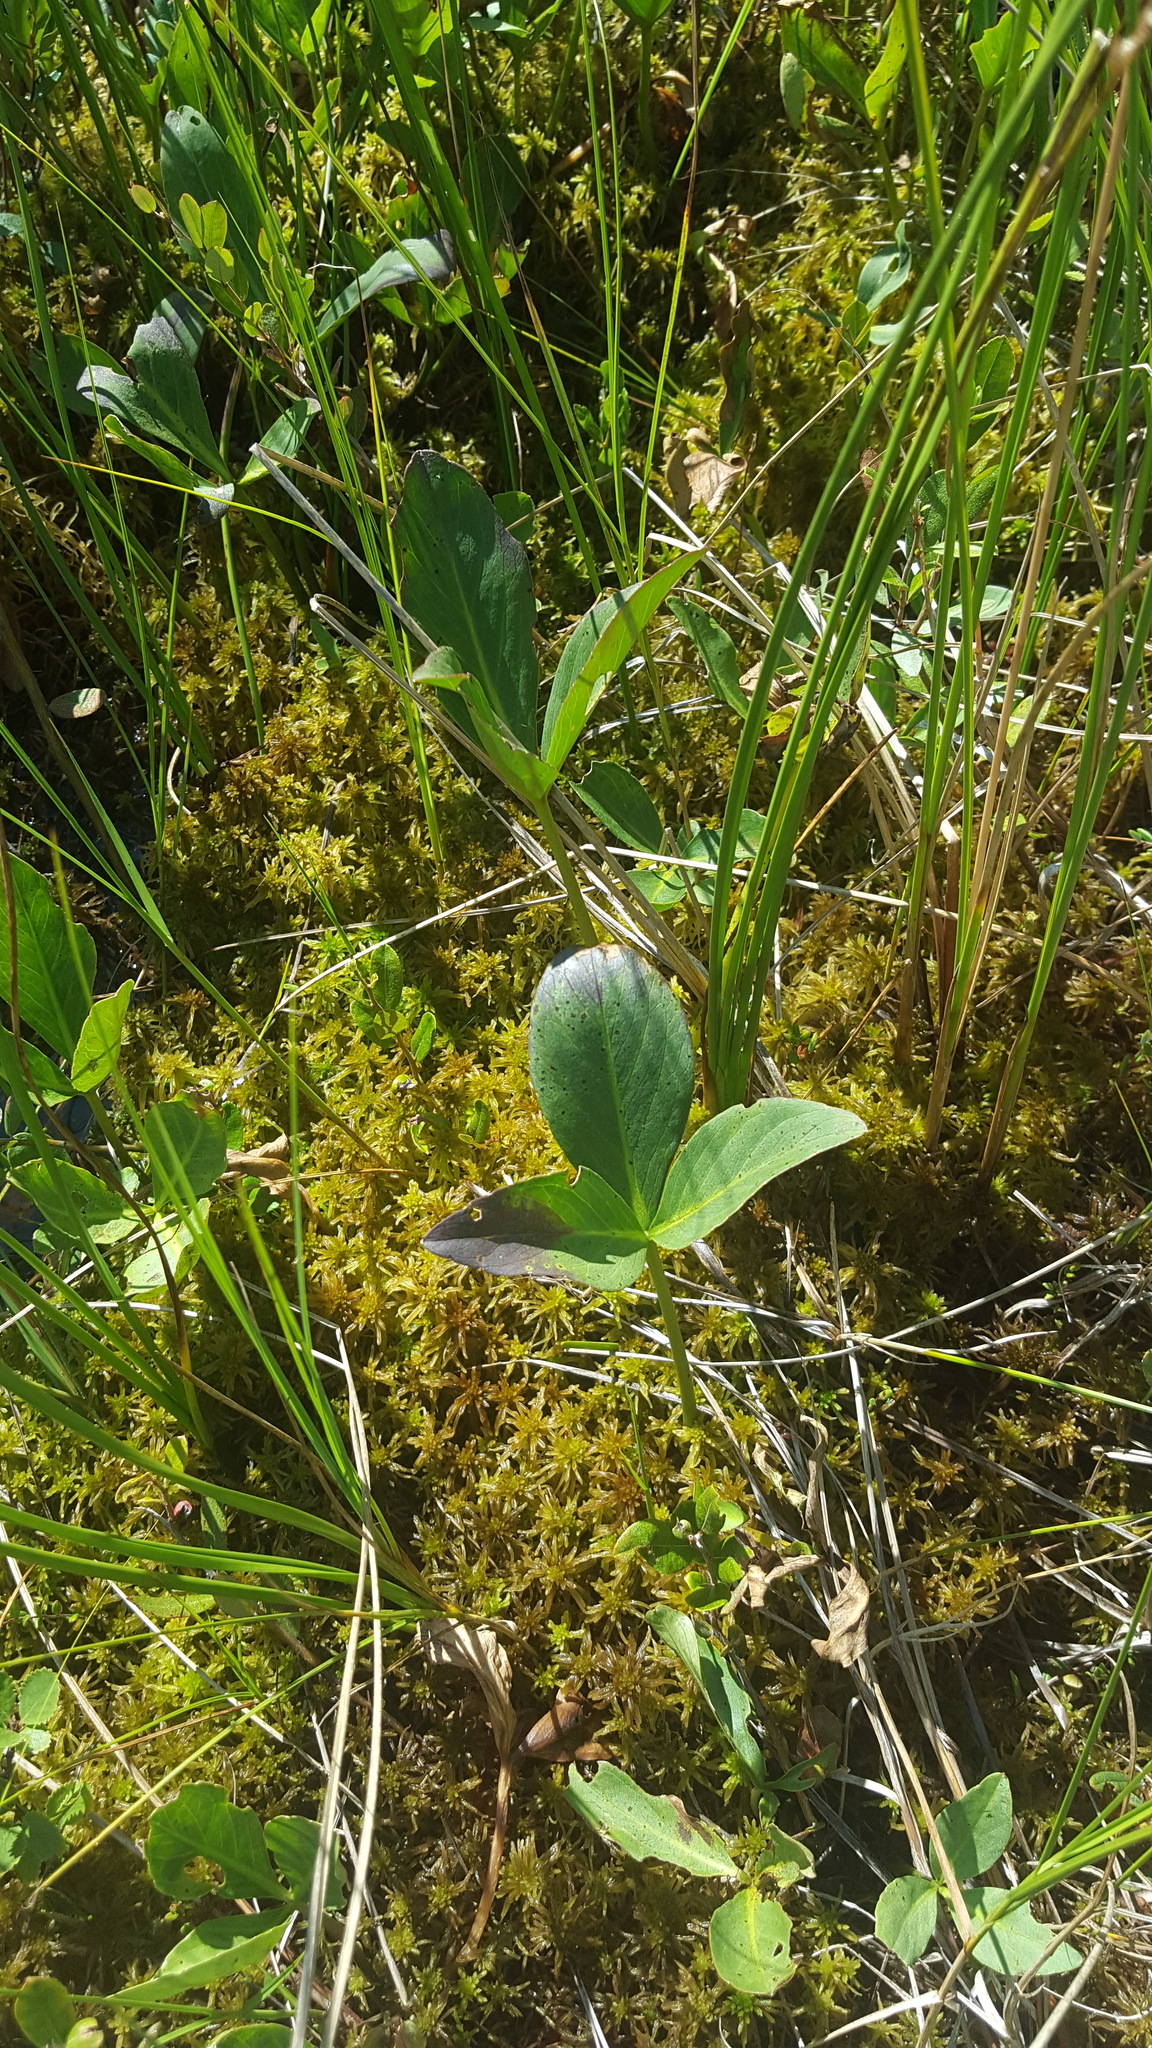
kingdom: Plantae
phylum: Tracheophyta
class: Magnoliopsida
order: Asterales
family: Menyanthaceae
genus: Menyanthes
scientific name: Menyanthes trifoliata
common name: Bogbean
